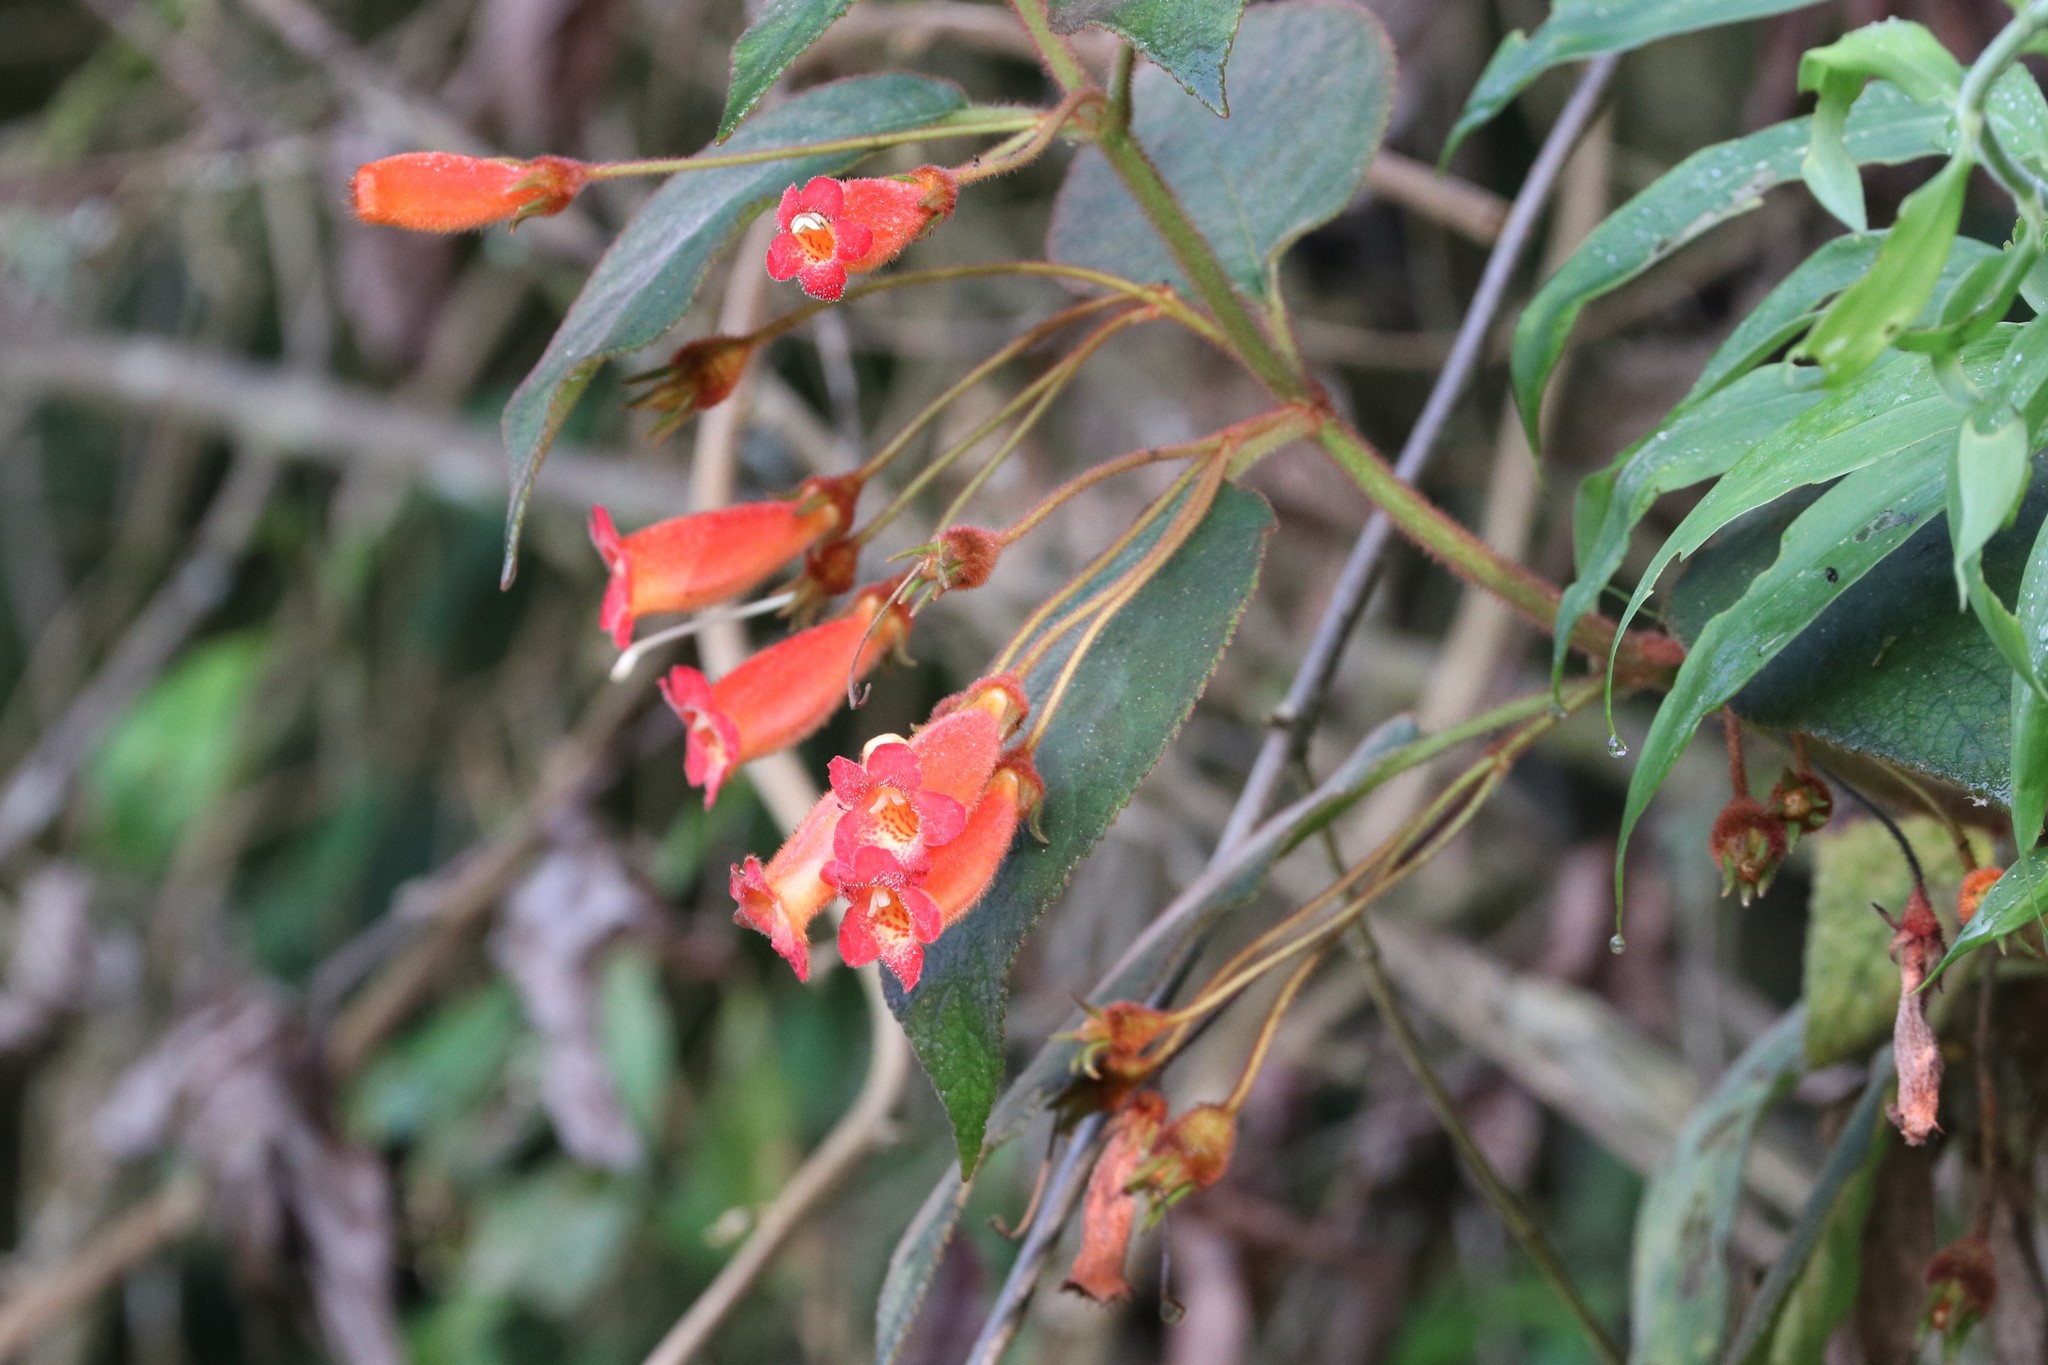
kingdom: Plantae
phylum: Tracheophyta
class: Magnoliopsida
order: Lamiales
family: Gesneriaceae
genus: Kohleria
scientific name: Kohleria hirsuta
